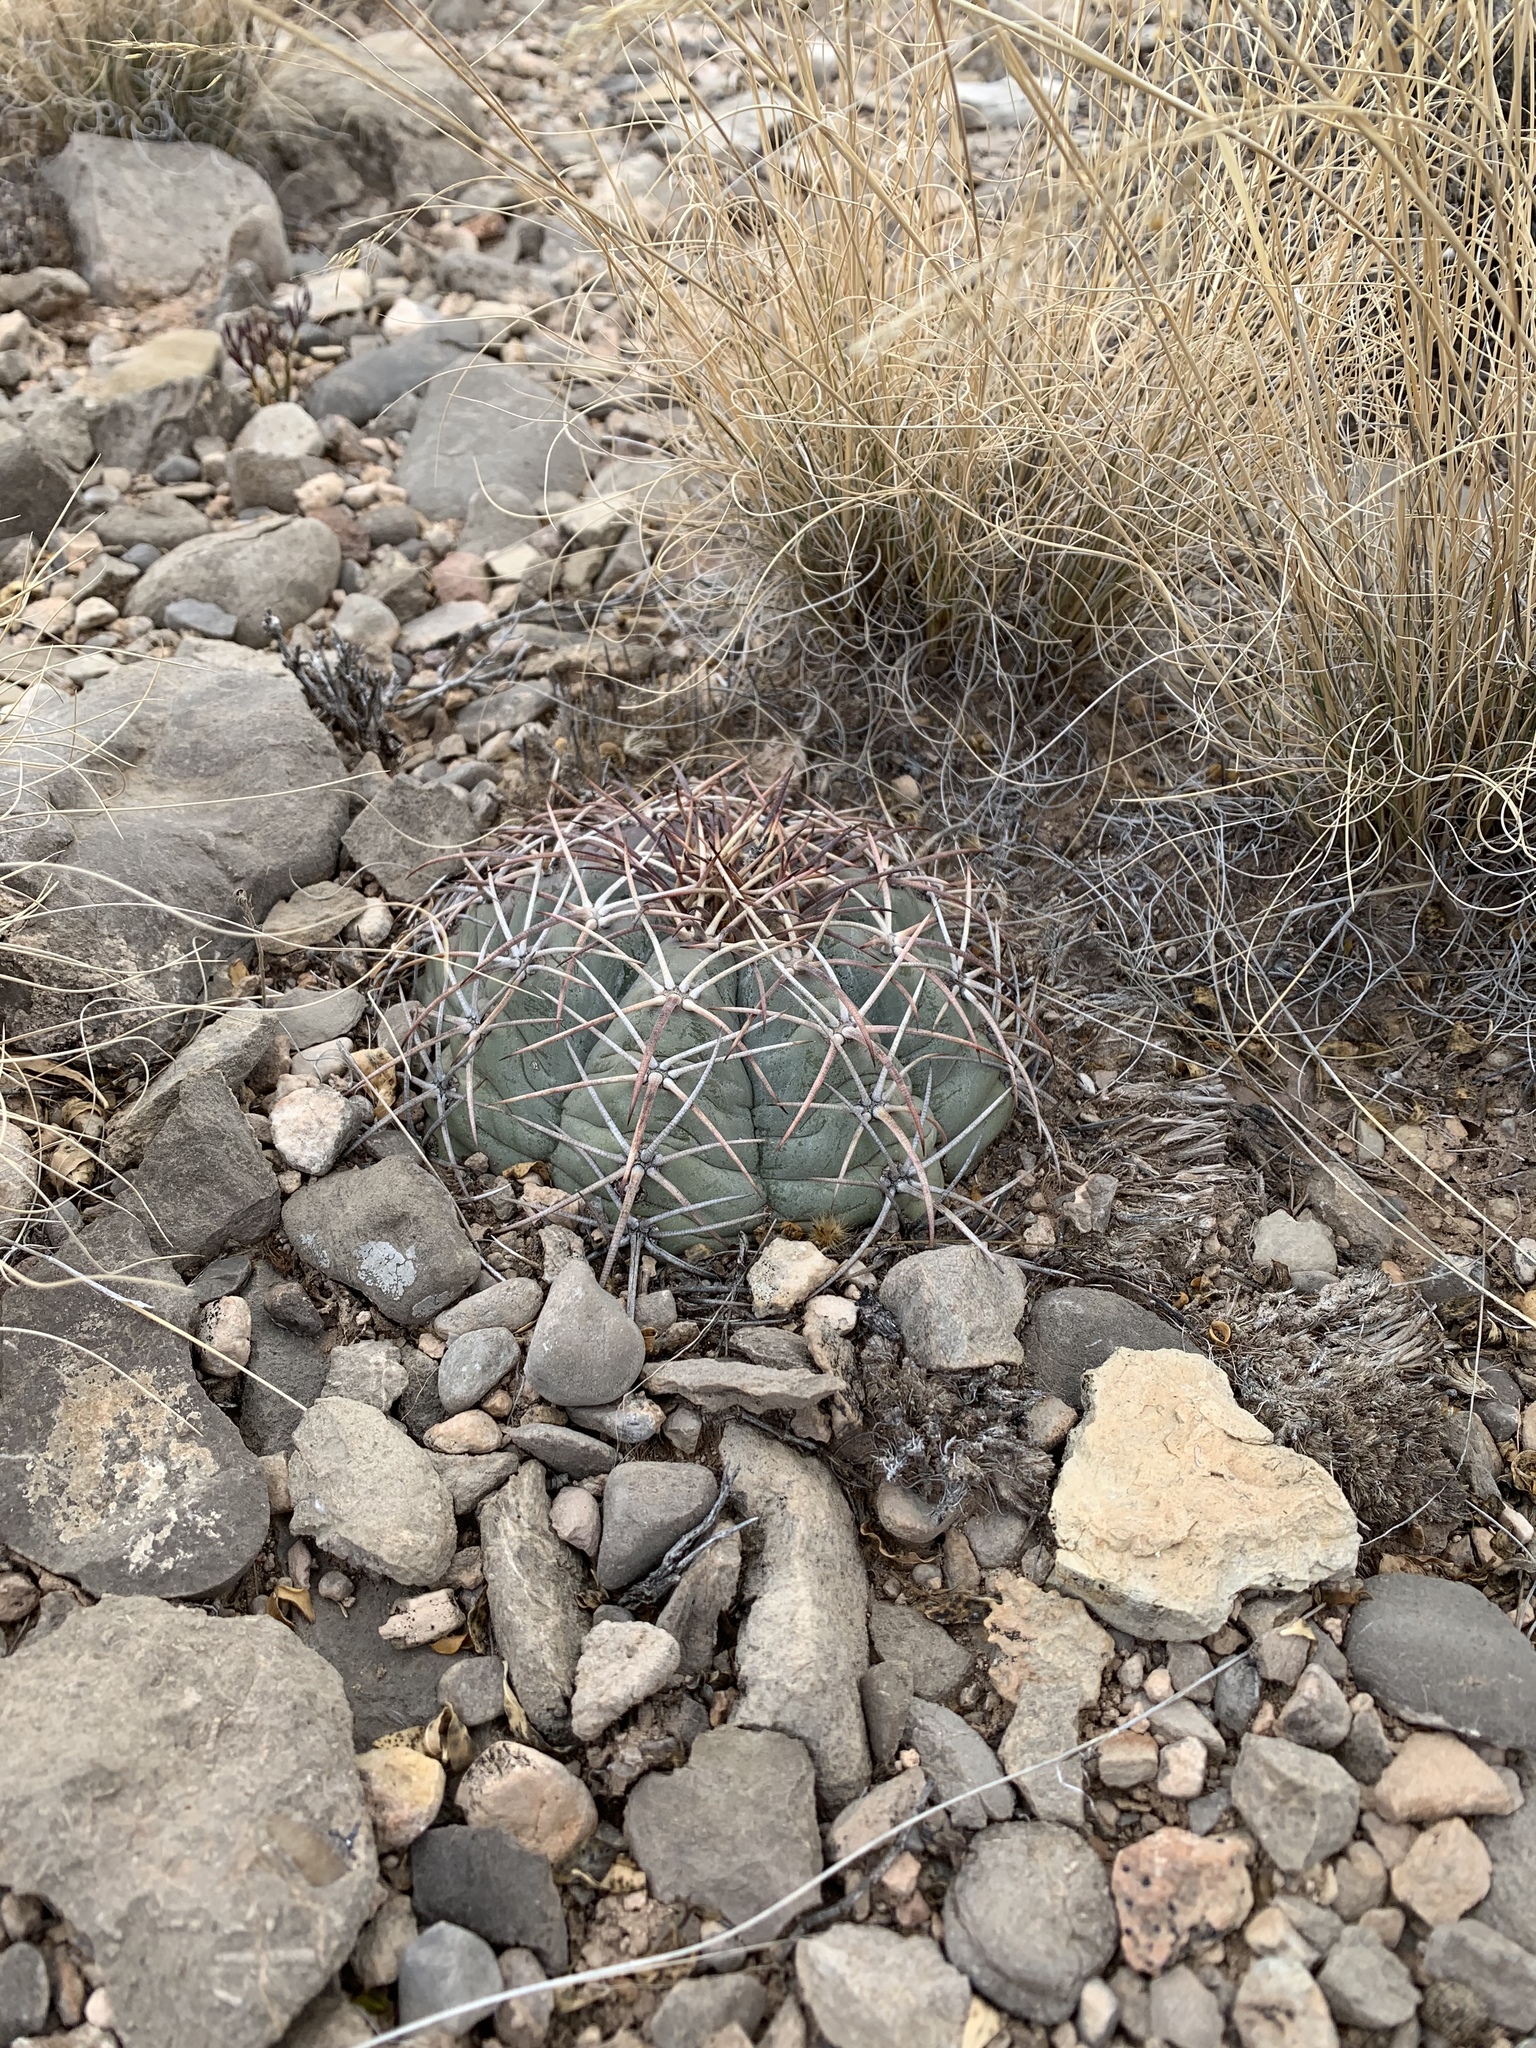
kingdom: Plantae
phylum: Tracheophyta
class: Magnoliopsida
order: Caryophyllales
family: Cactaceae
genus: Echinocactus
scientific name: Echinocactus horizonthalonius
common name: Devilshead
